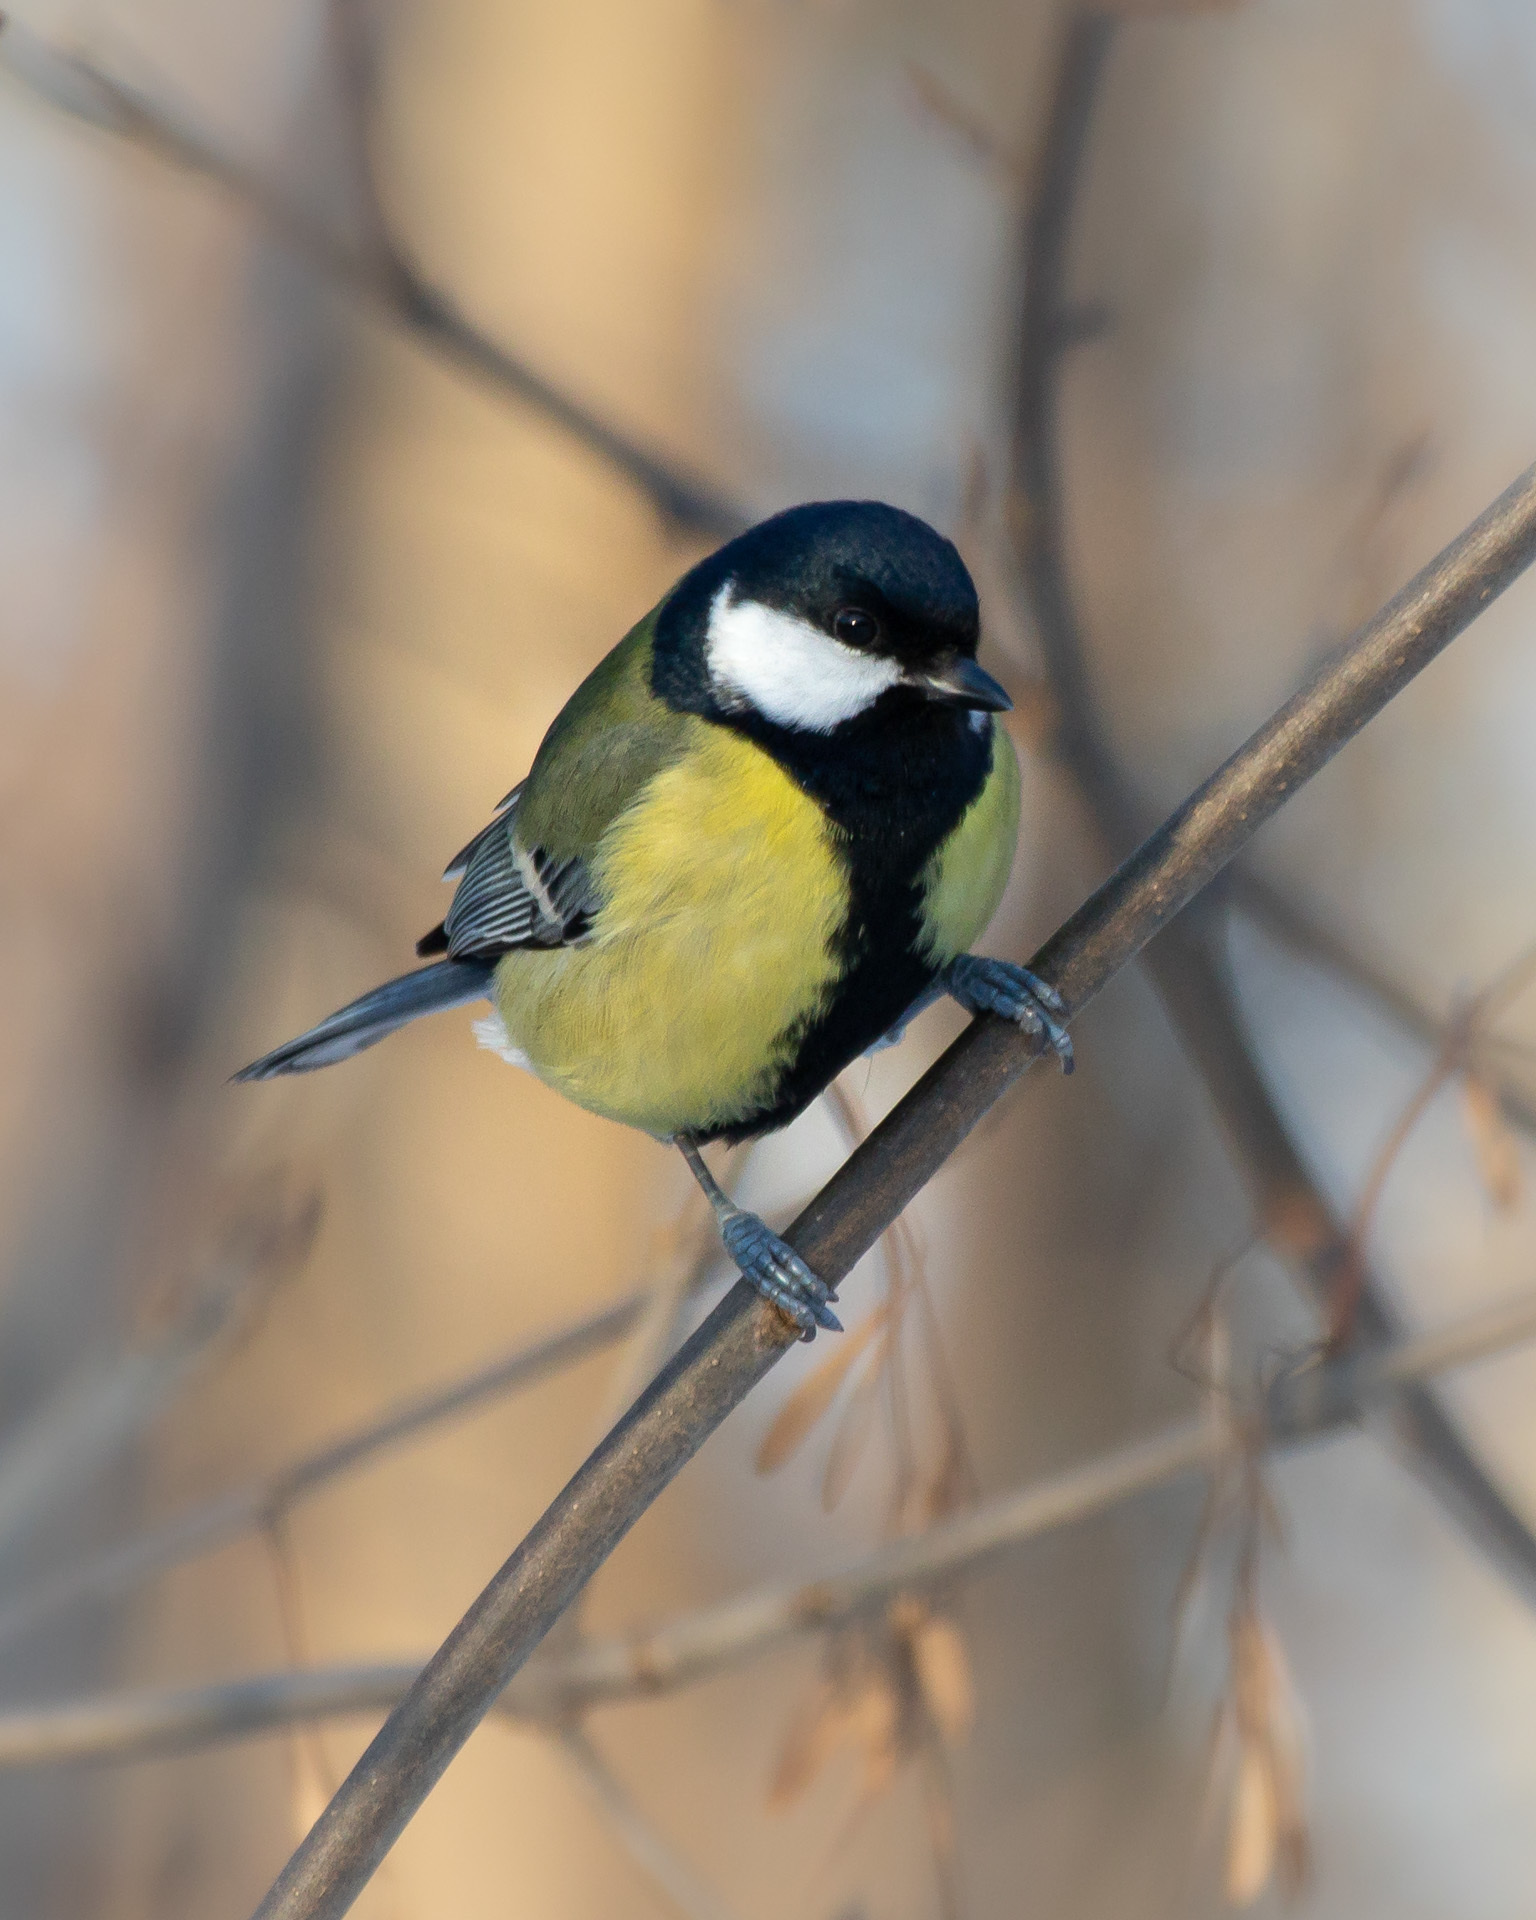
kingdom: Animalia
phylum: Chordata
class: Aves
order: Passeriformes
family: Paridae
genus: Parus
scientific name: Parus major
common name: Great tit
